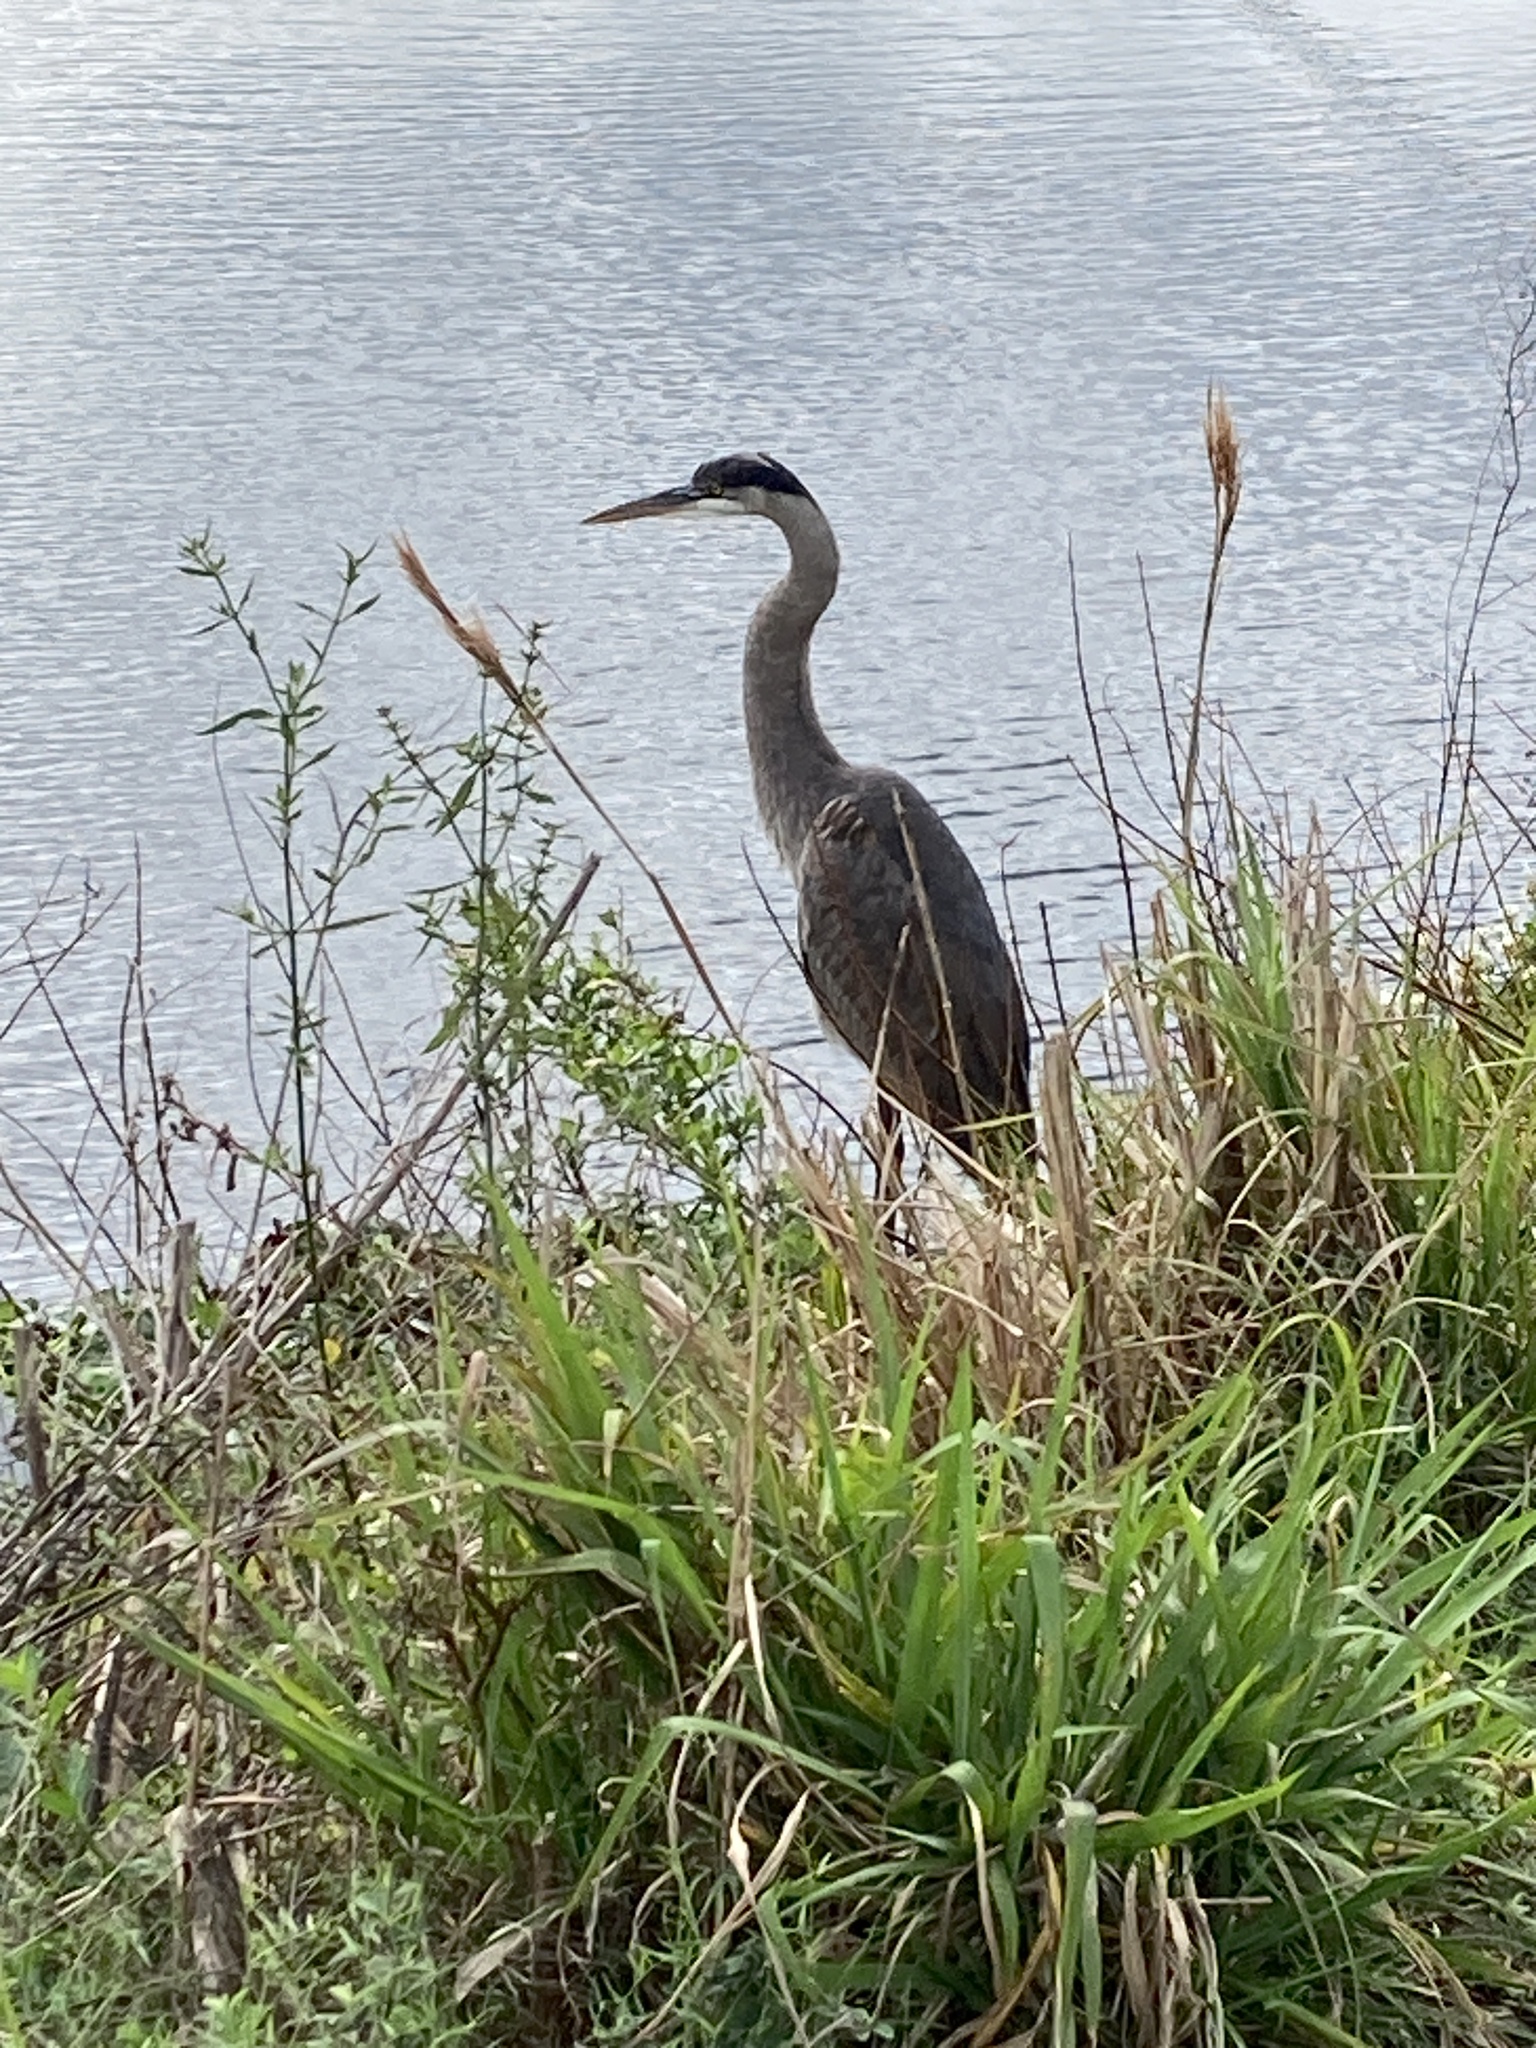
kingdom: Animalia
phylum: Chordata
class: Aves
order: Pelecaniformes
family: Ardeidae
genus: Ardea
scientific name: Ardea herodias
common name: Great blue heron
